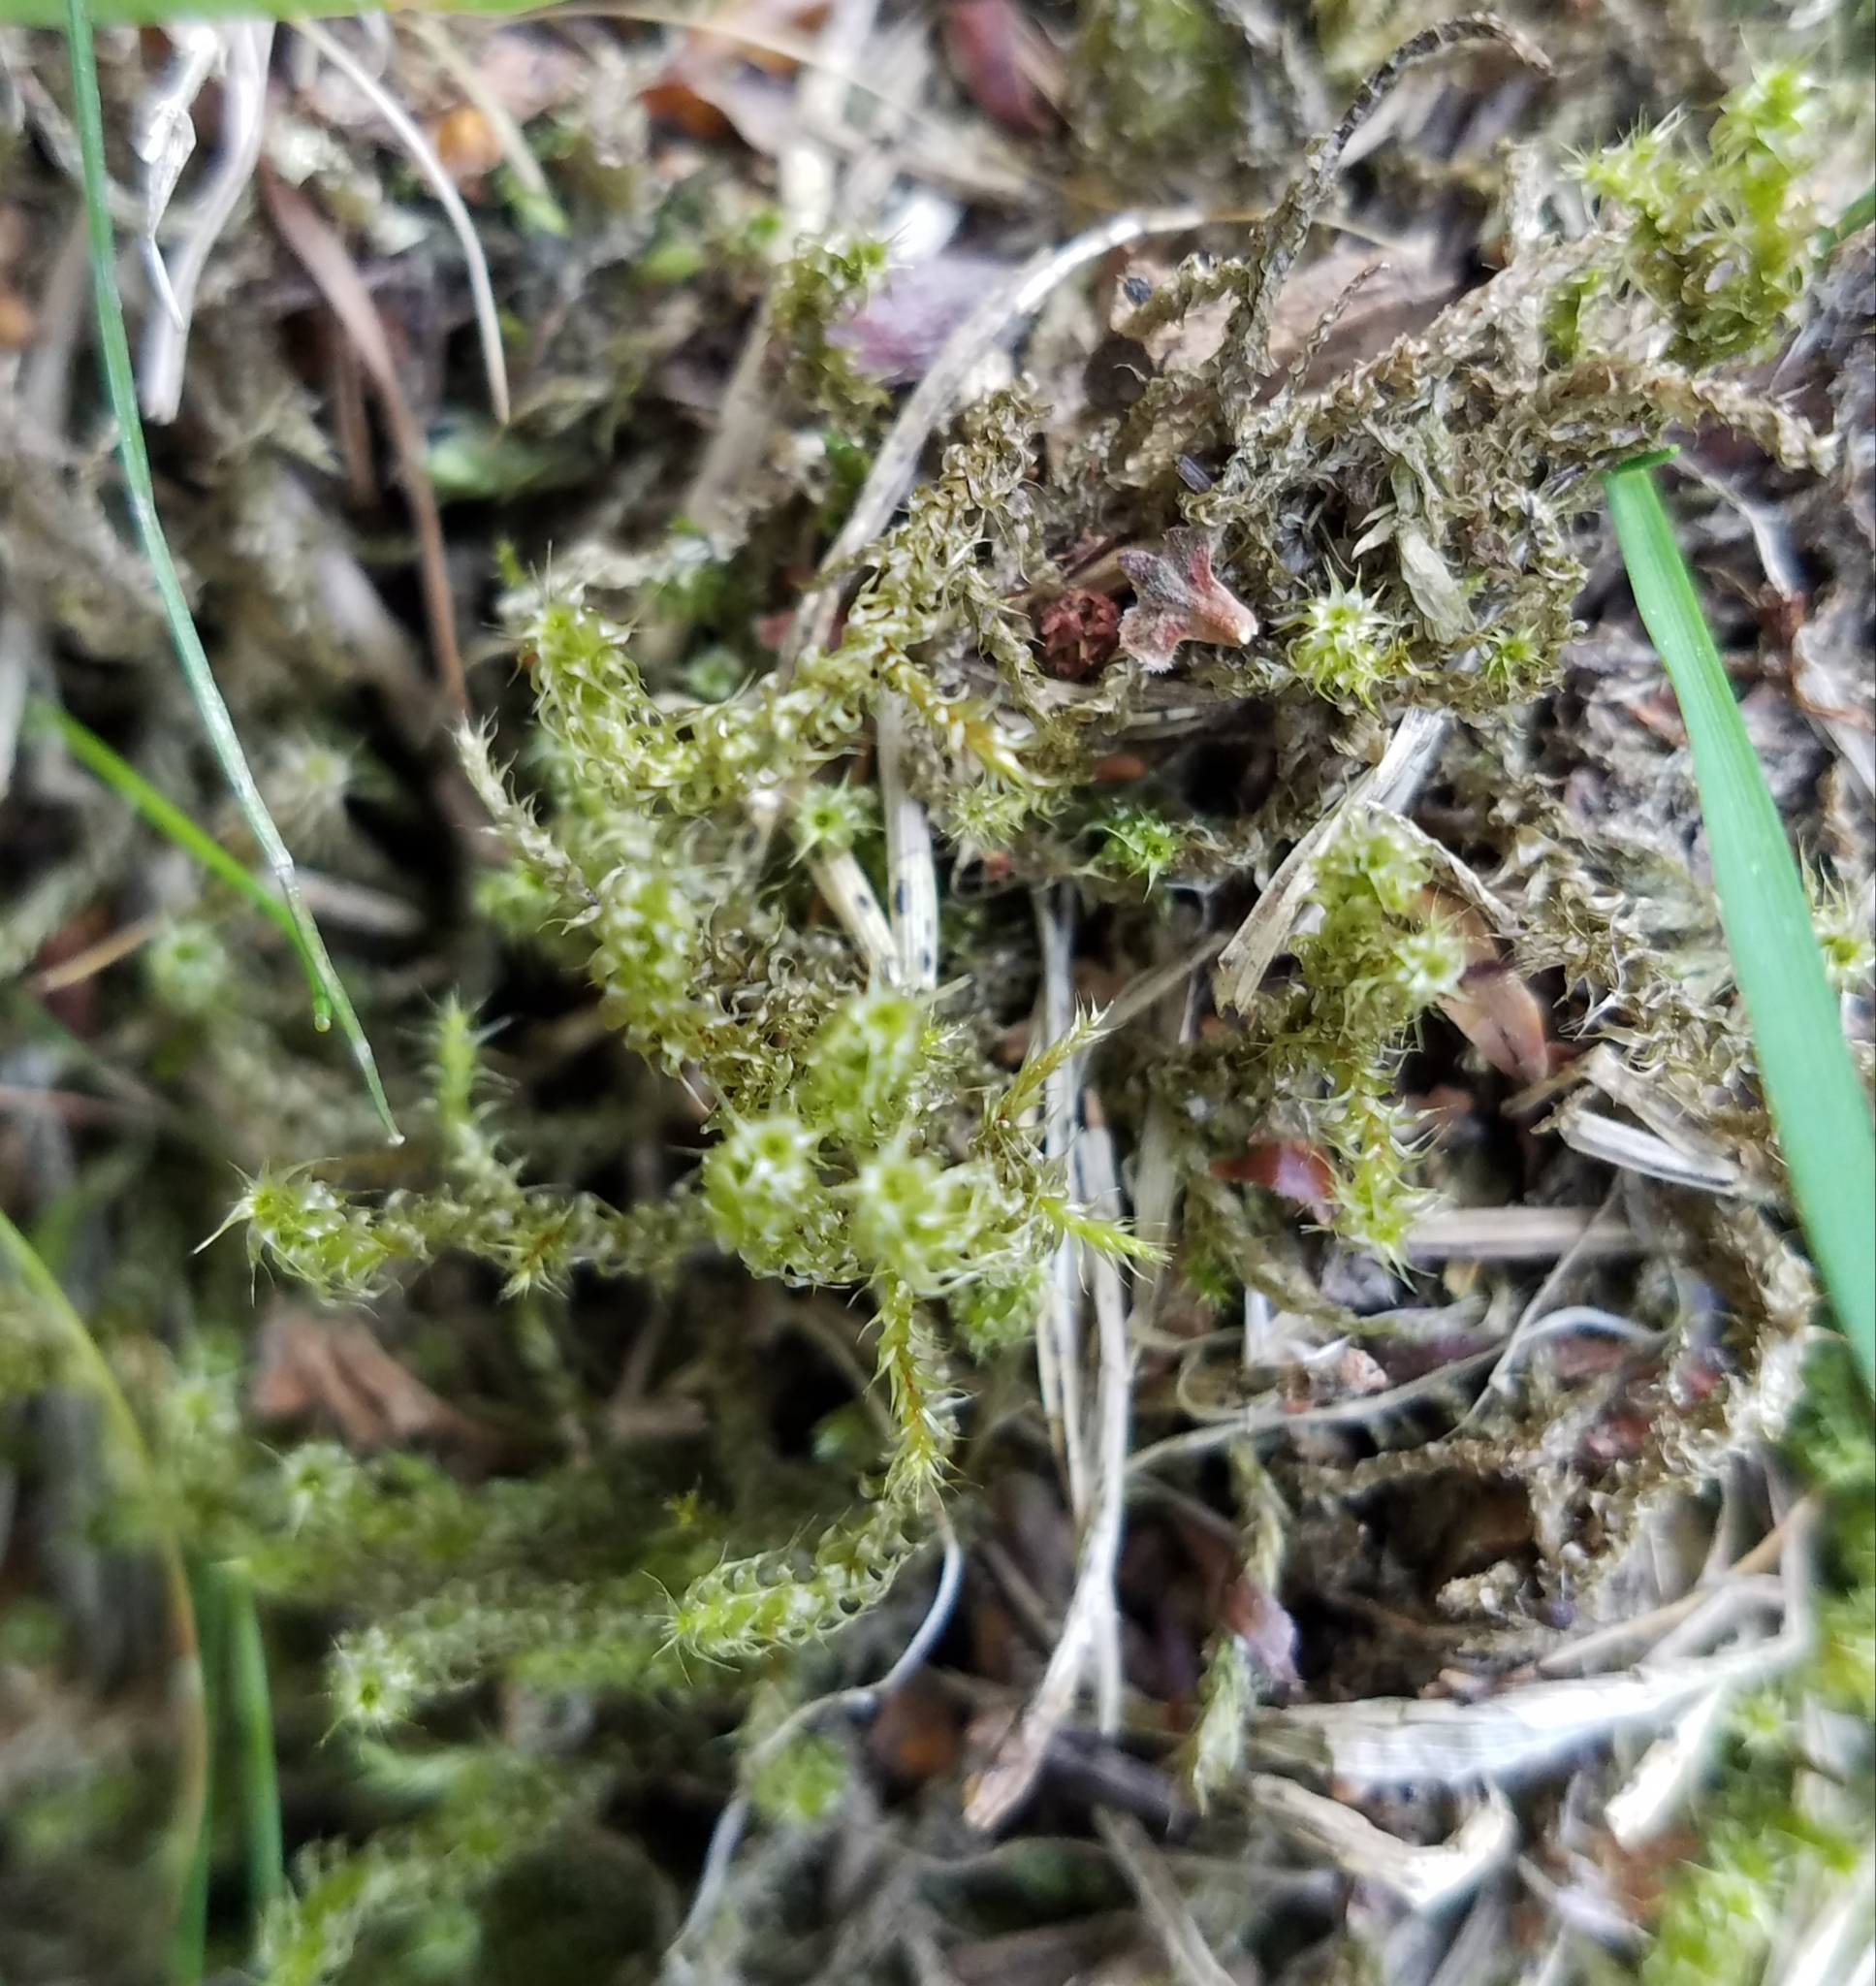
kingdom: Plantae
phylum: Bryophyta
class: Bryopsida
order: Hypnales
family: Hylocomiaceae
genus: Rhytidiadelphus
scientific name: Rhytidiadelphus squarrosus
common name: Springy turf-moss
